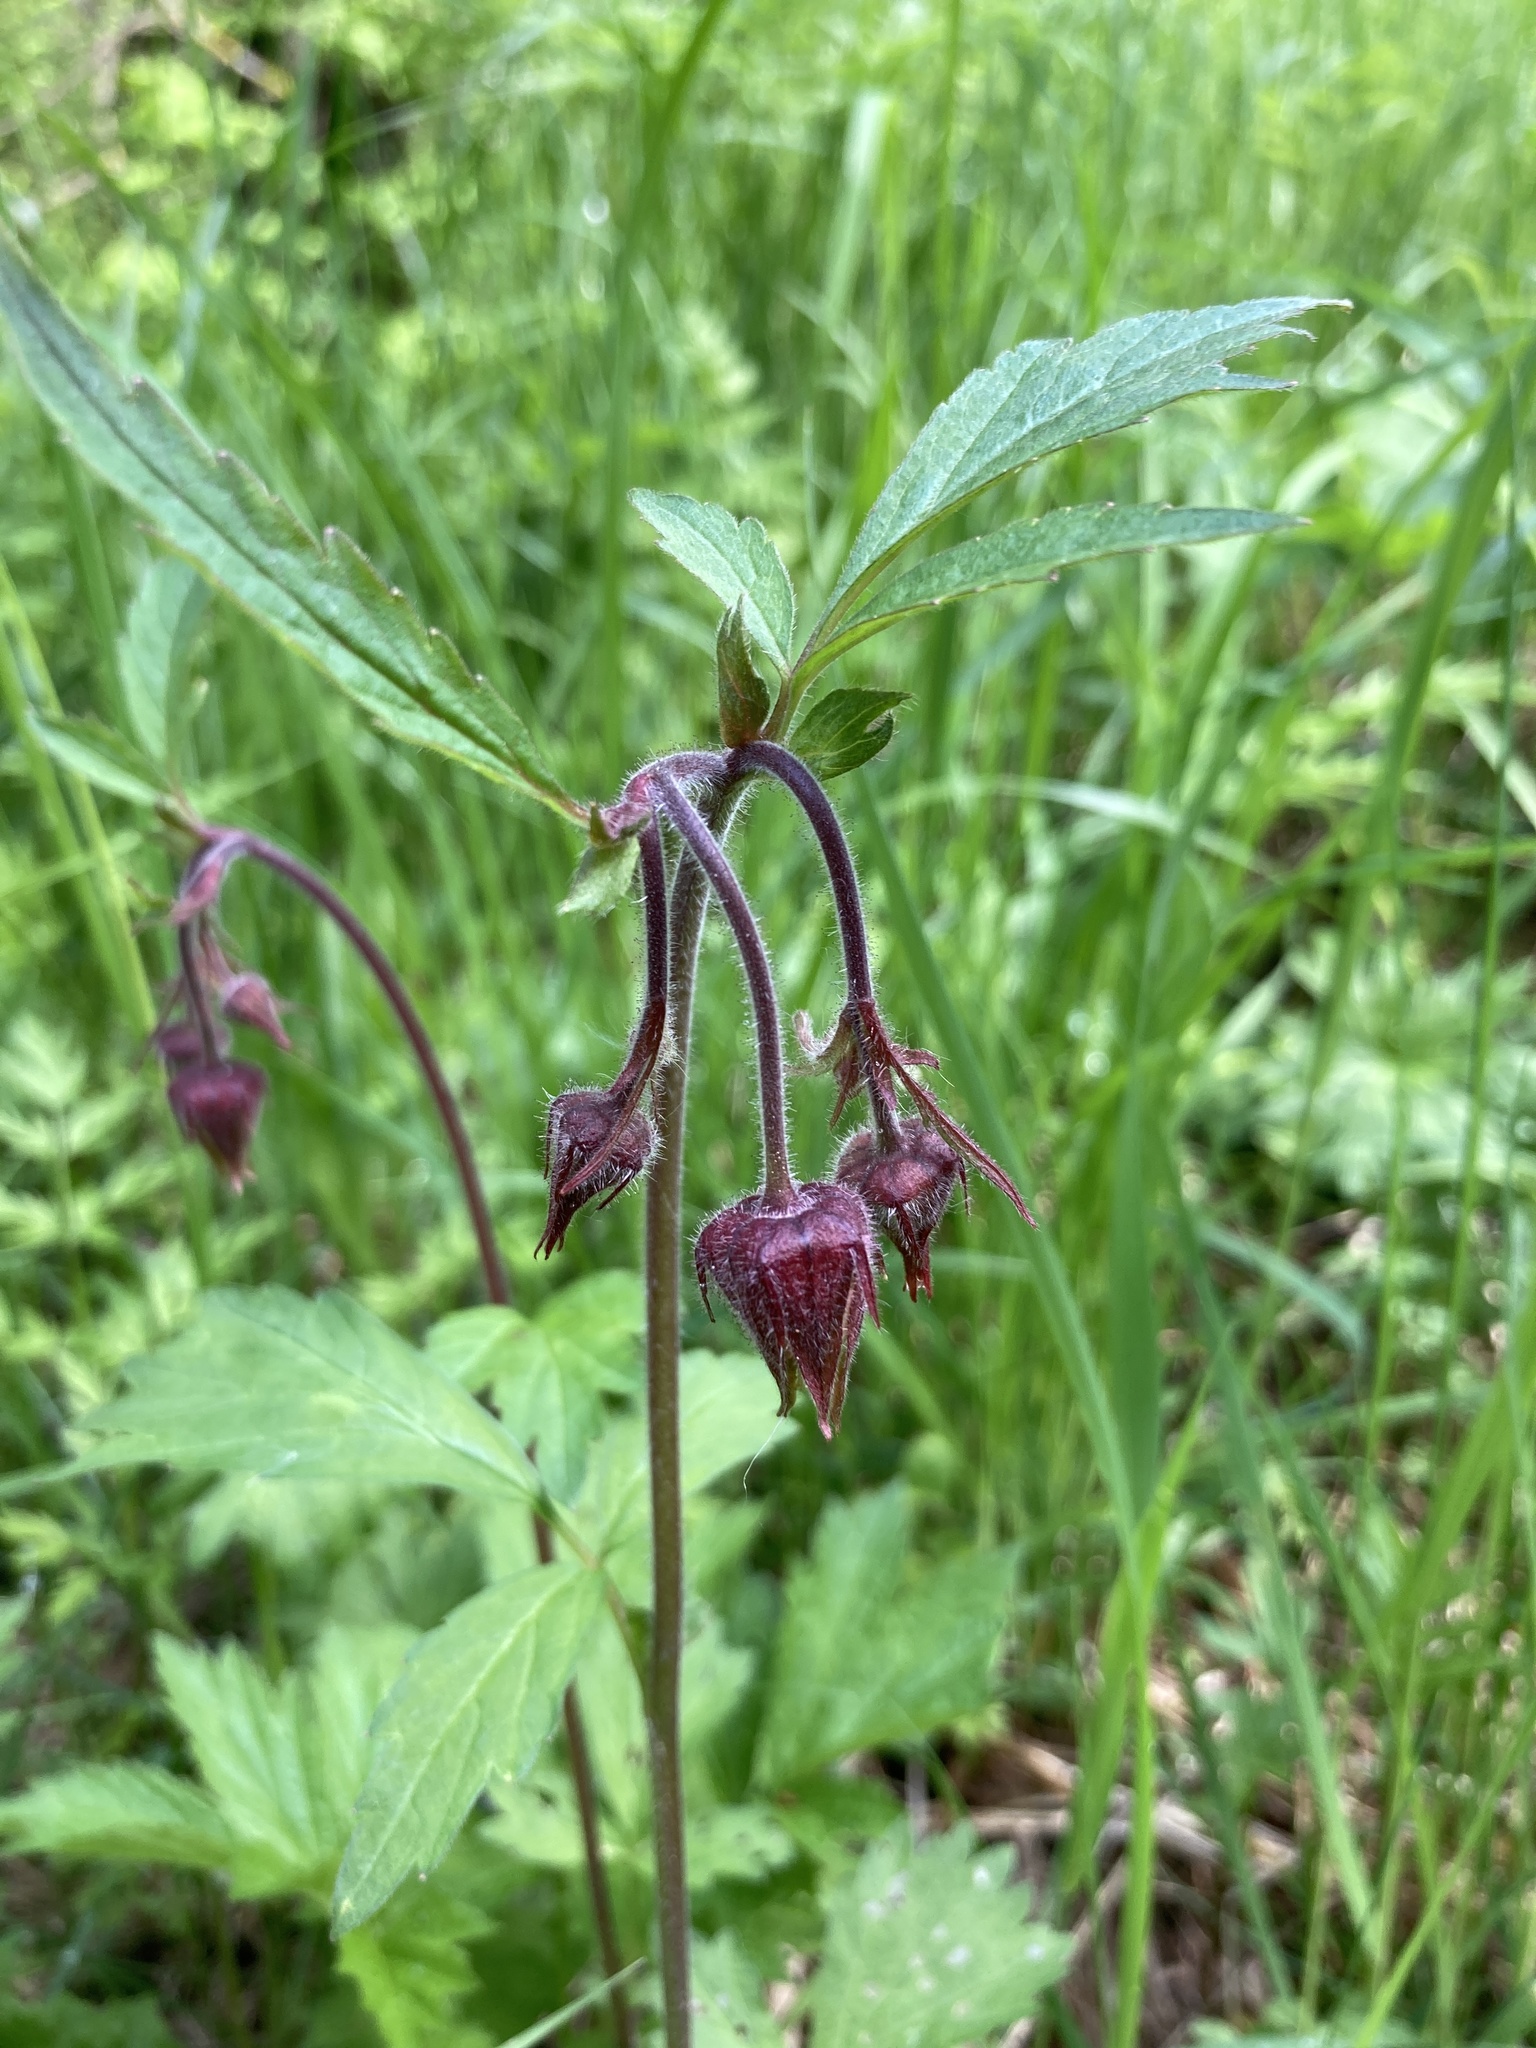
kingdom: Plantae
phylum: Tracheophyta
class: Magnoliopsida
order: Rosales
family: Rosaceae
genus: Geum
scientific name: Geum rivale
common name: Water avens
